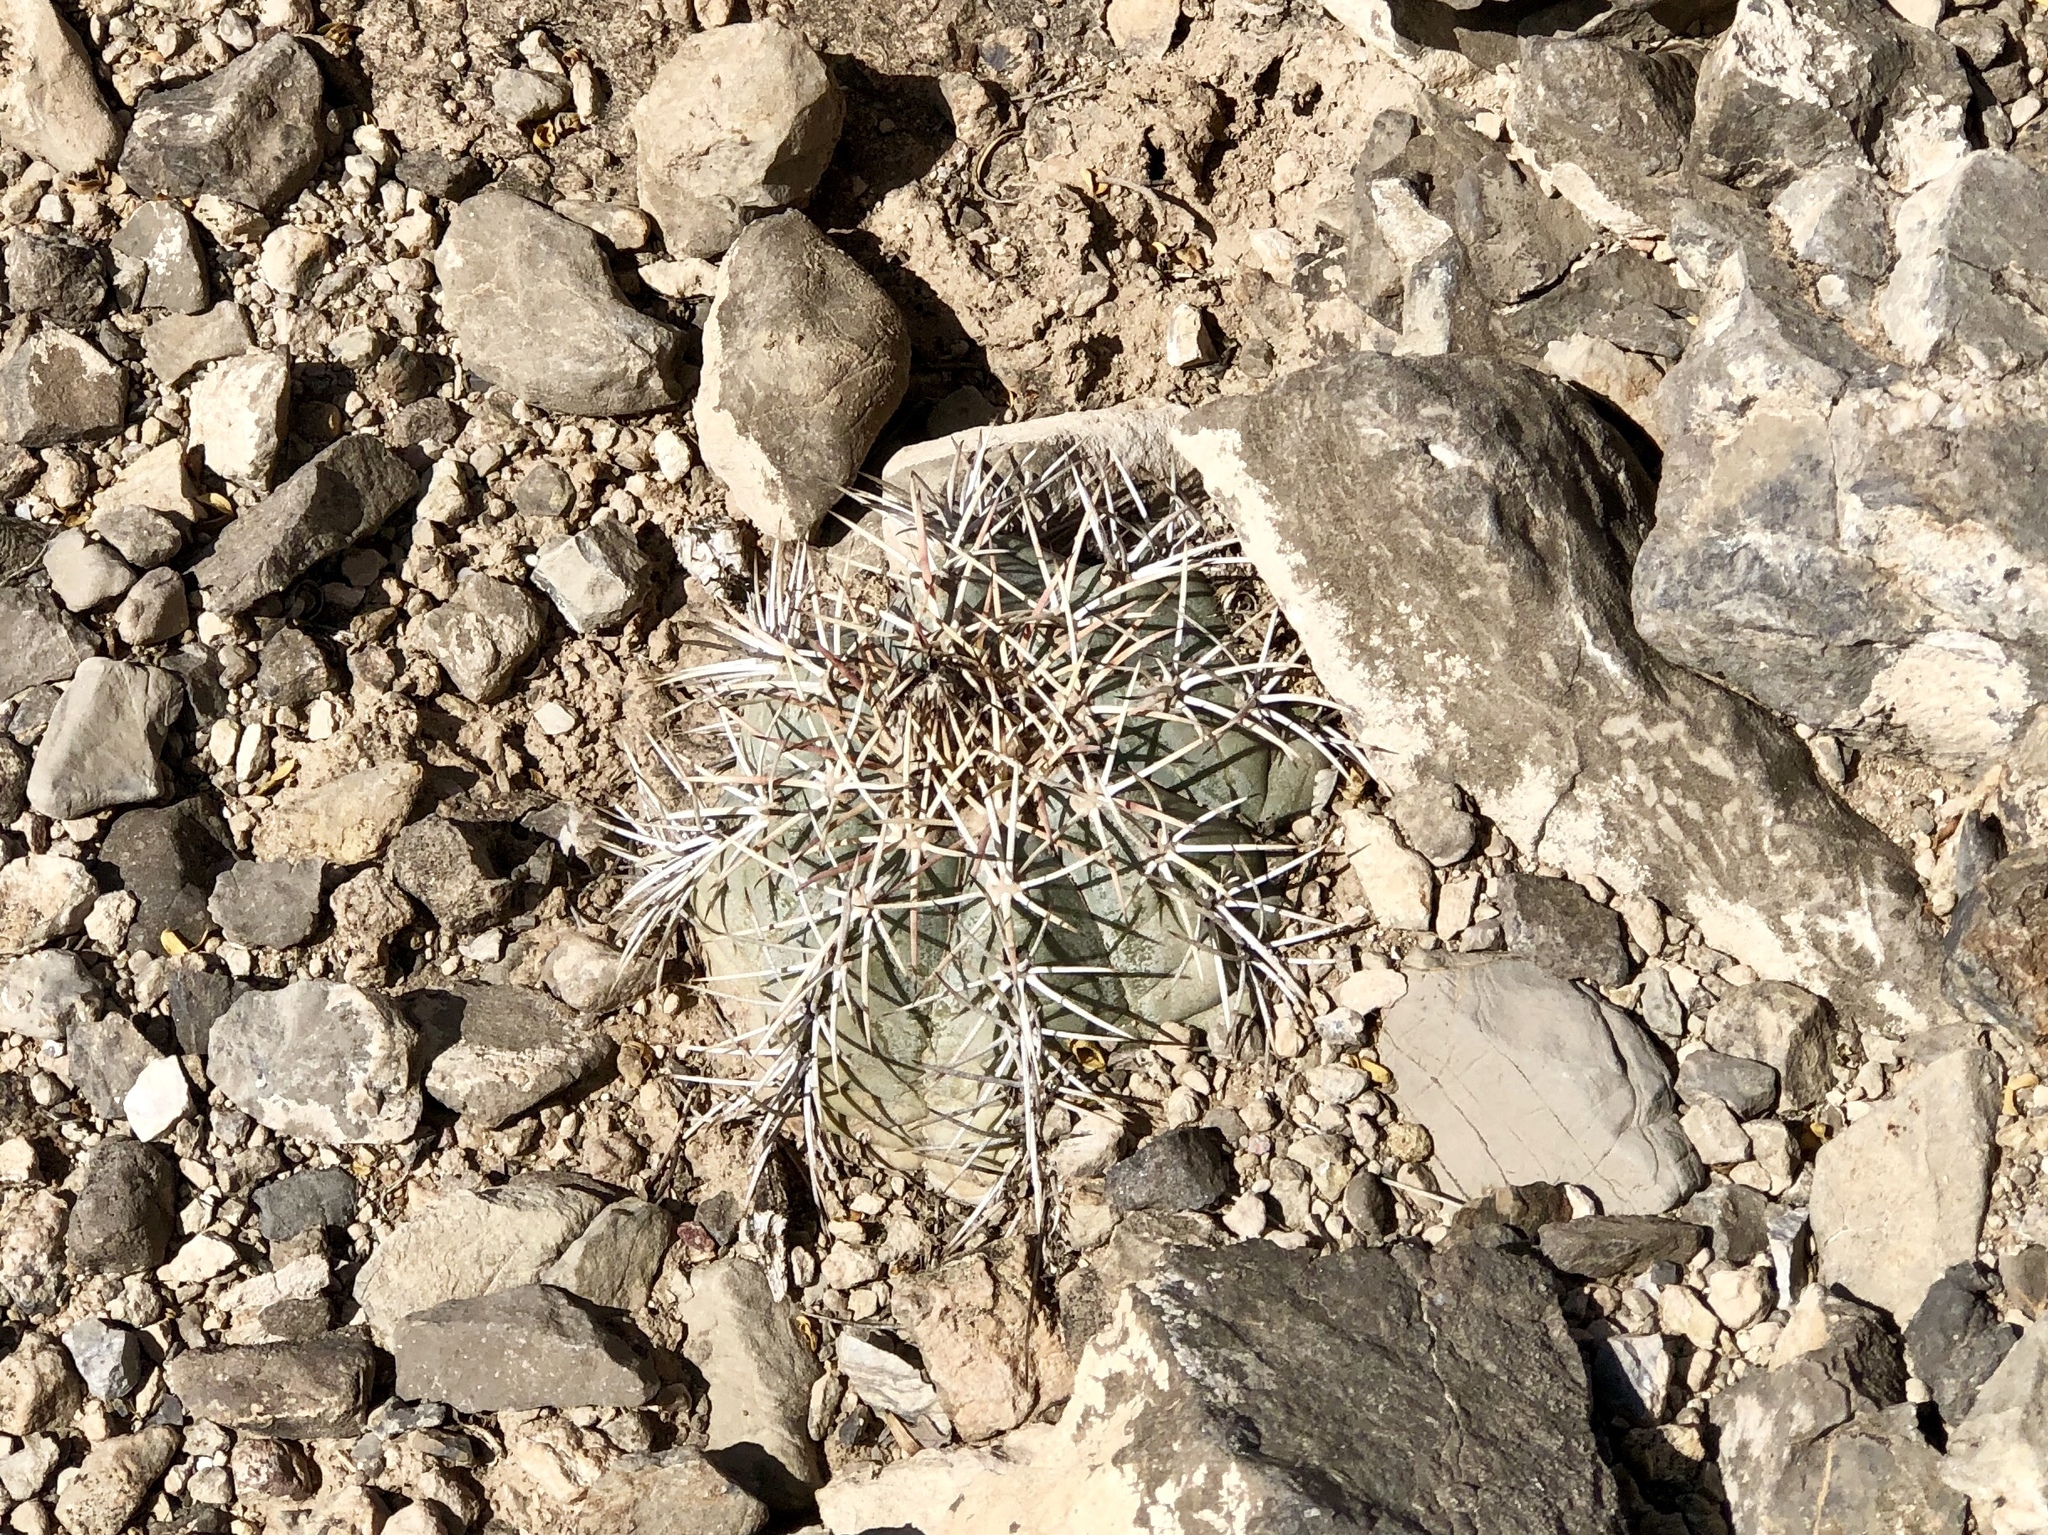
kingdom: Plantae
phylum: Tracheophyta
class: Magnoliopsida
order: Caryophyllales
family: Cactaceae
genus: Echinocactus
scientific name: Echinocactus horizonthalonius
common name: Devilshead
